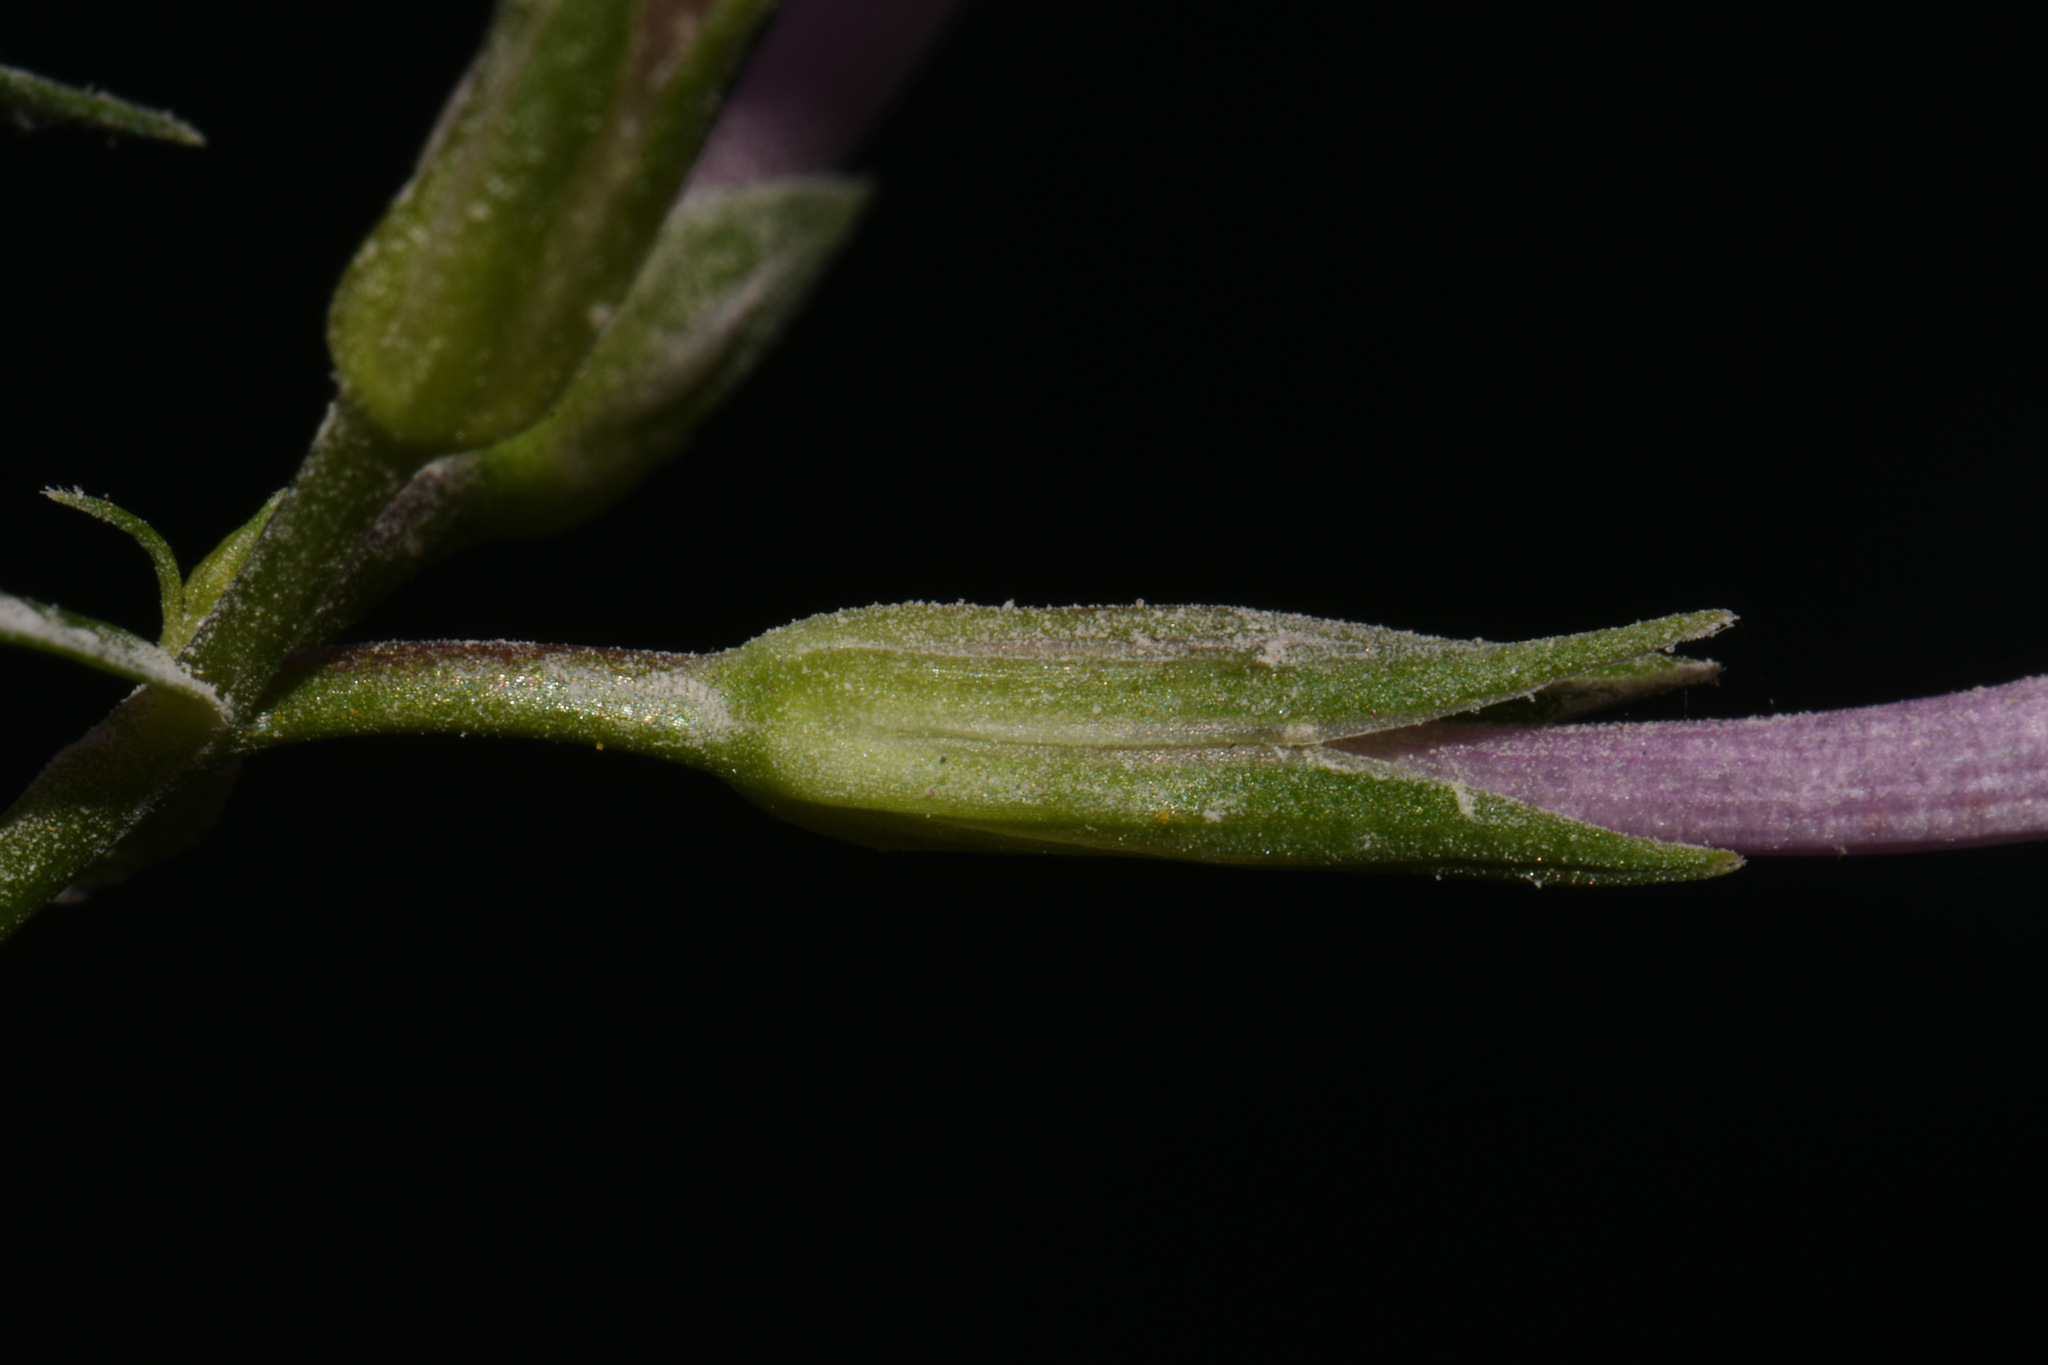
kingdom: Plantae
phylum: Tracheophyta
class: Magnoliopsida
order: Ericales
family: Polemoniaceae
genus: Phlox
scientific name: Phlox pulchra
